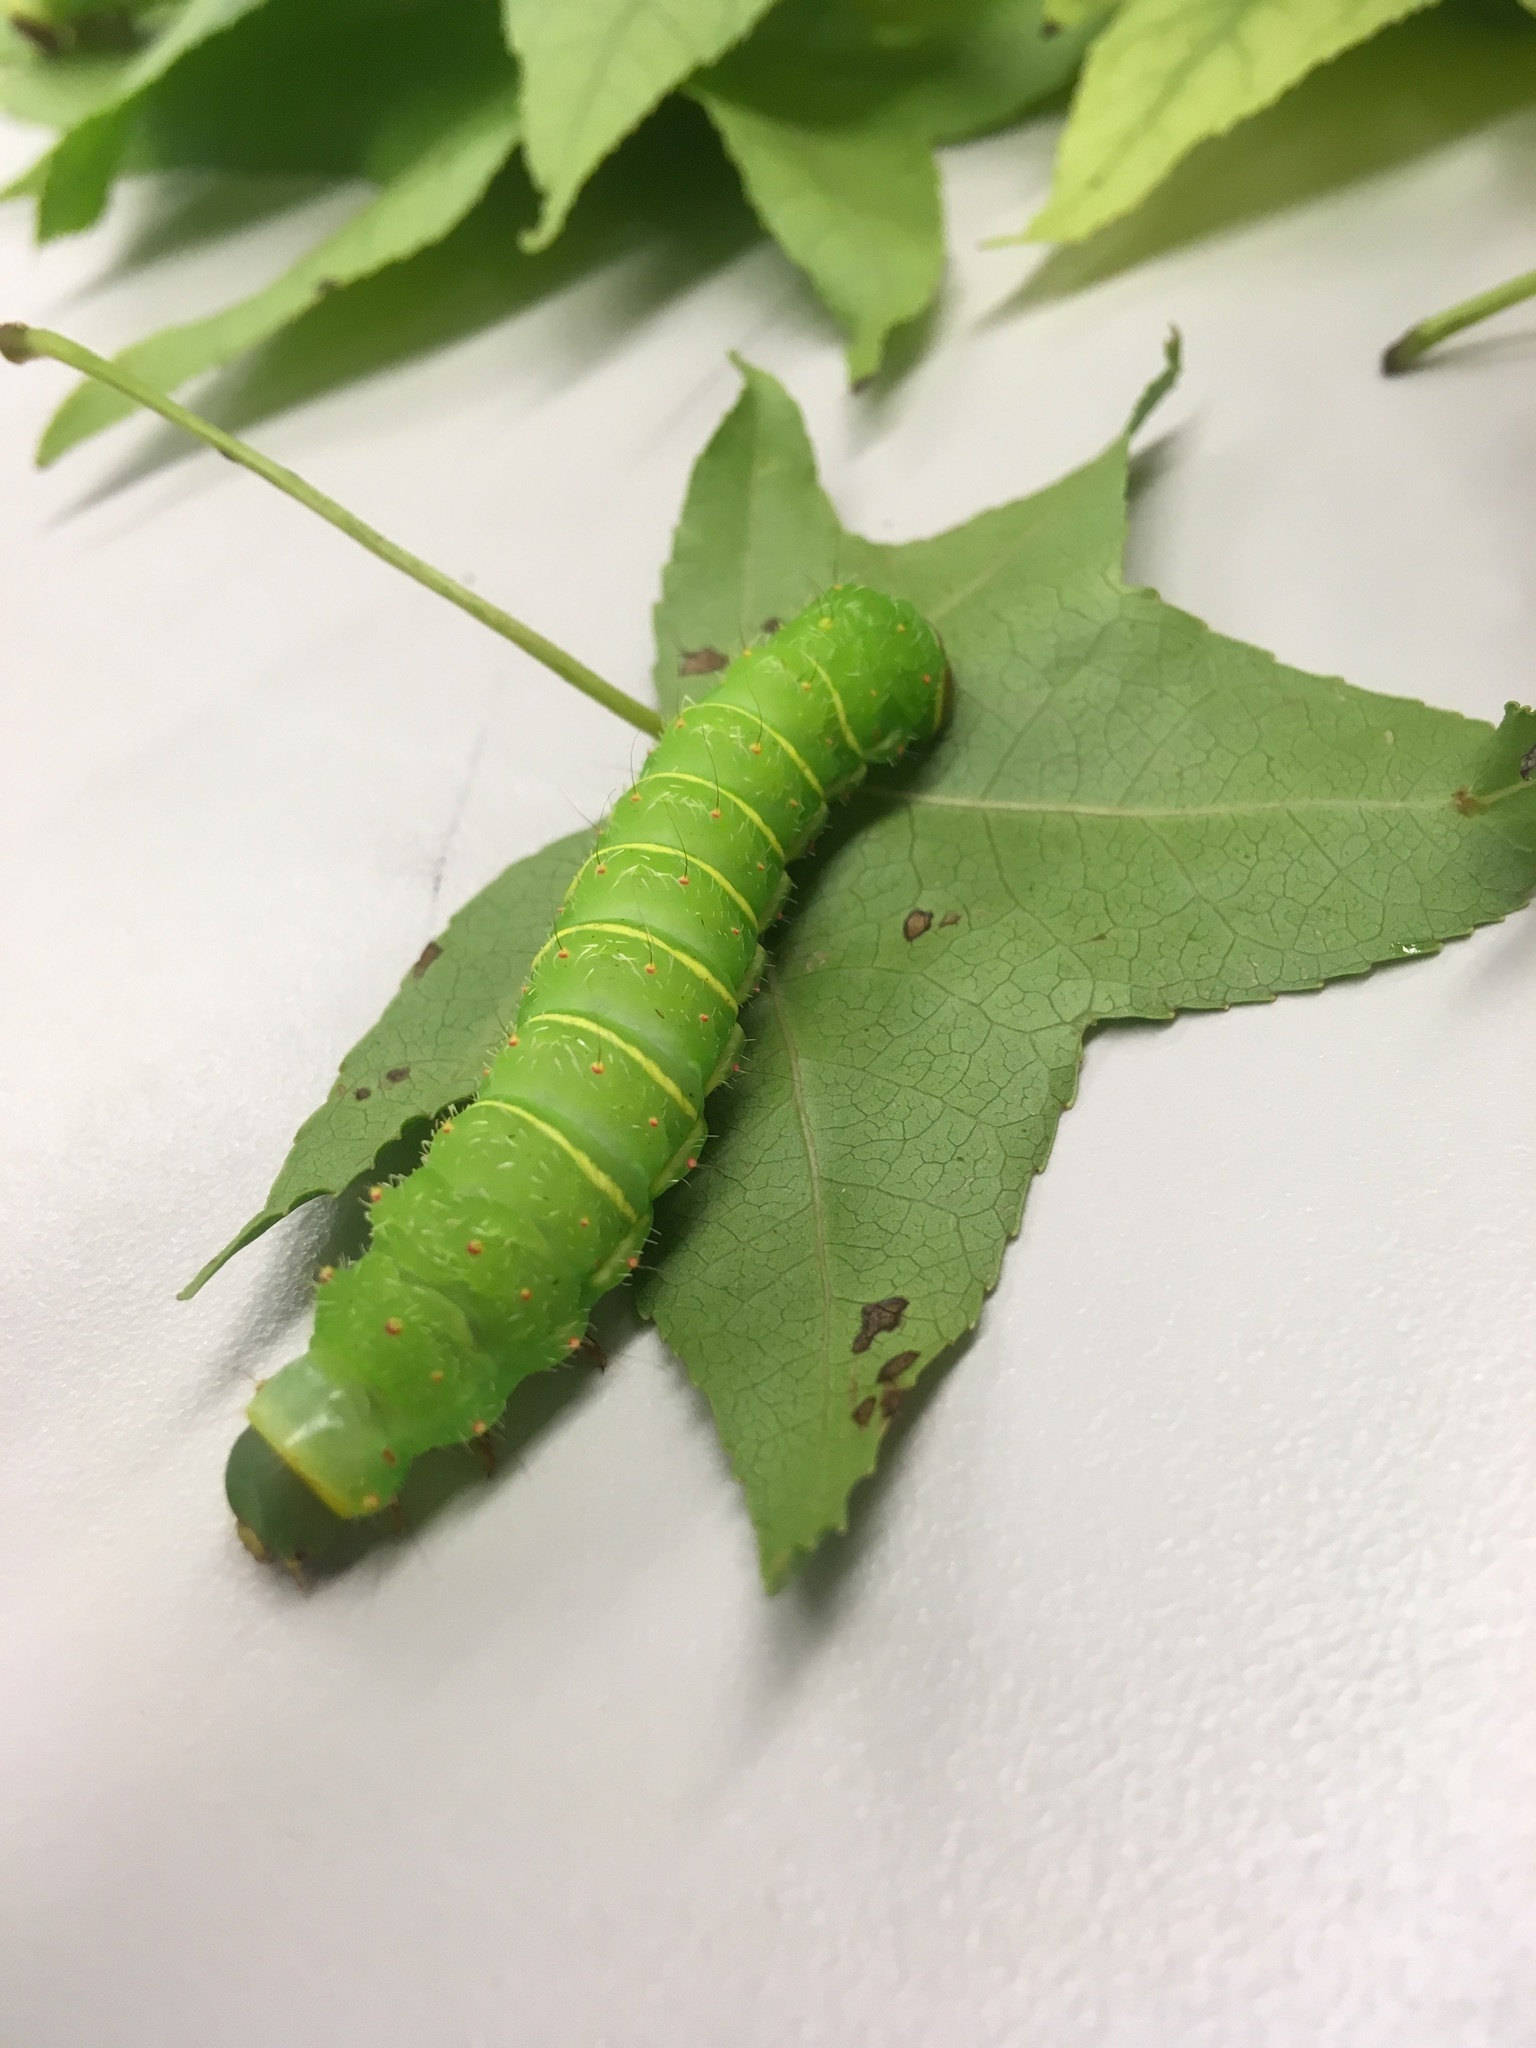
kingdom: Animalia
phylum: Arthropoda
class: Insecta
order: Lepidoptera
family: Saturniidae
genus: Actias
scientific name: Actias luna
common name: Luna moth
